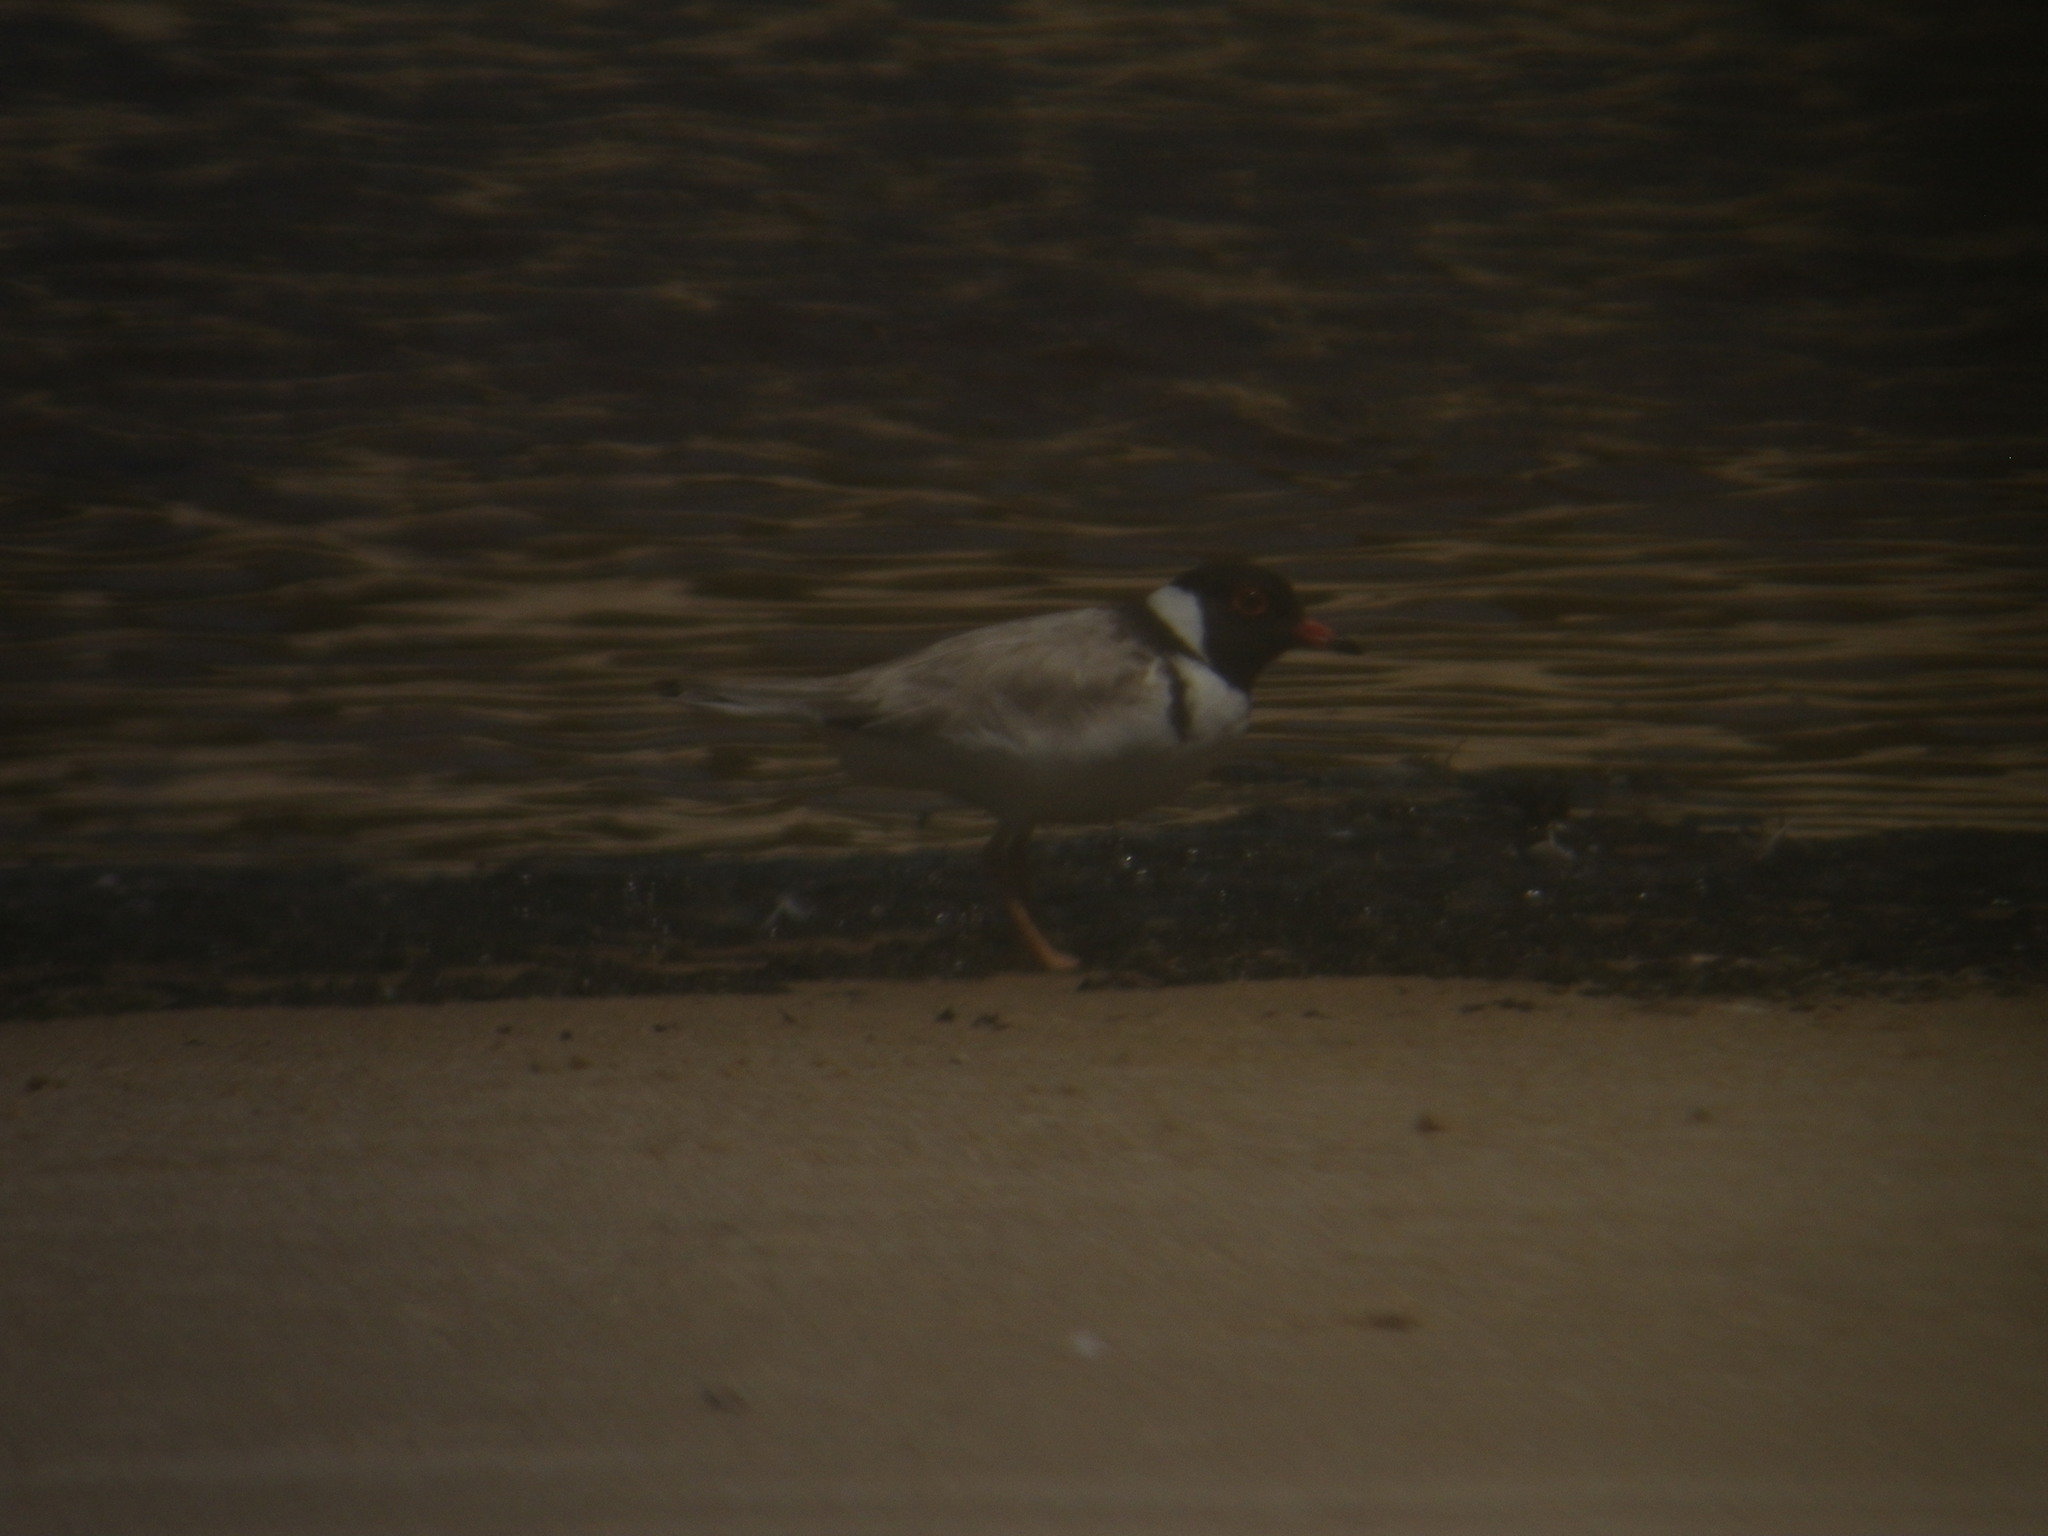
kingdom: Animalia
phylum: Chordata
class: Aves
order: Charadriiformes
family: Charadriidae
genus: Thinornis
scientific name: Thinornis cucullatus
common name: Hooded dotterel
